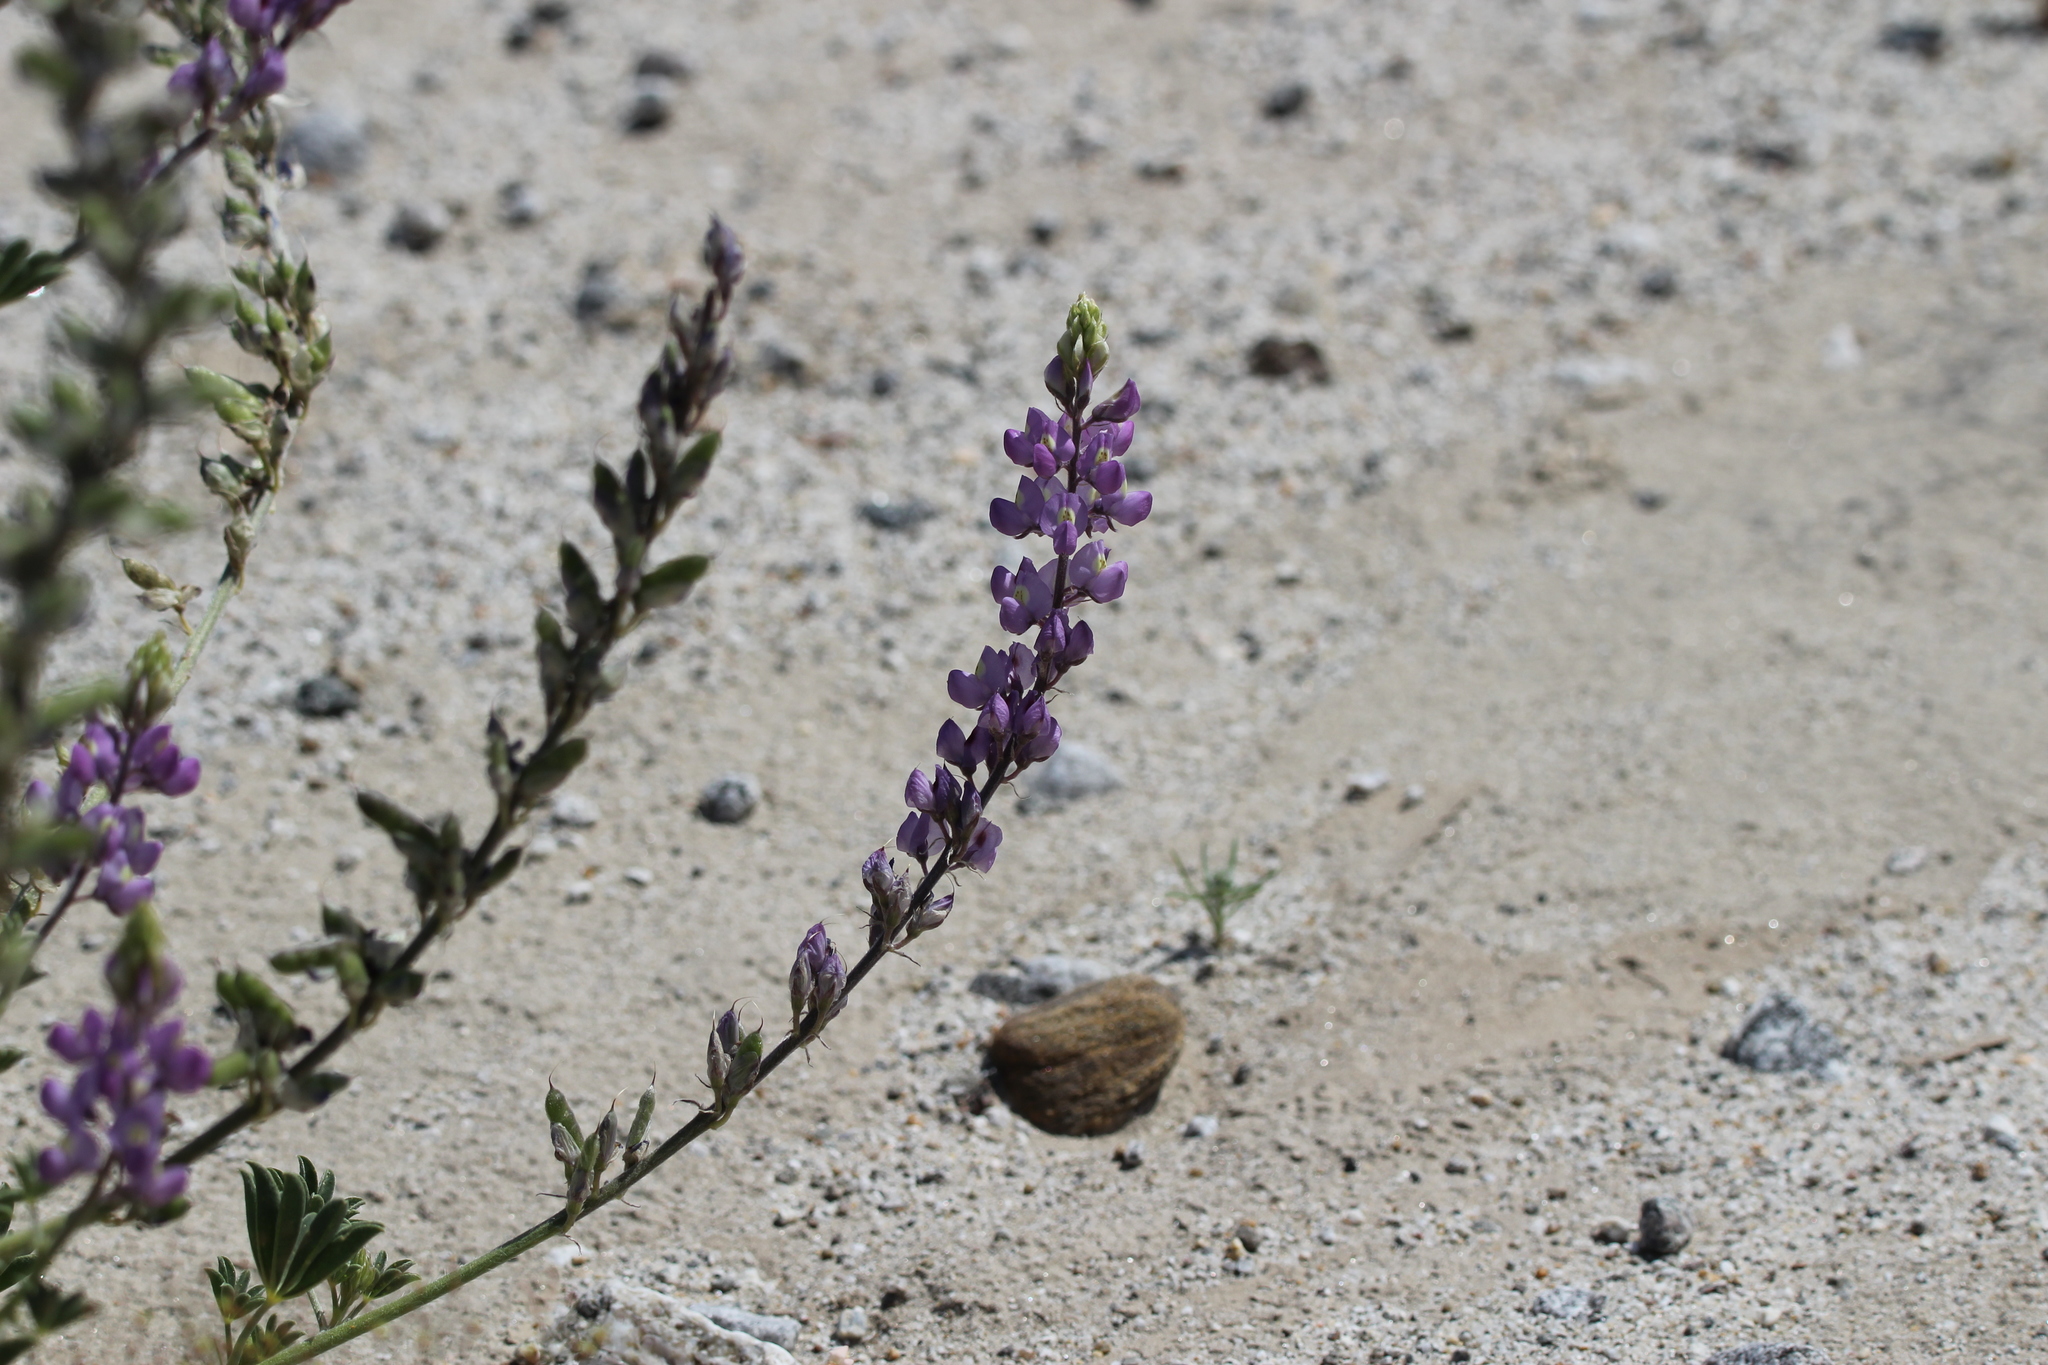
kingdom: Plantae
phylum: Tracheophyta
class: Magnoliopsida
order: Fabales
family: Fabaceae
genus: Lupinus
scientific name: Lupinus arizonicus
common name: Arizona lupine
